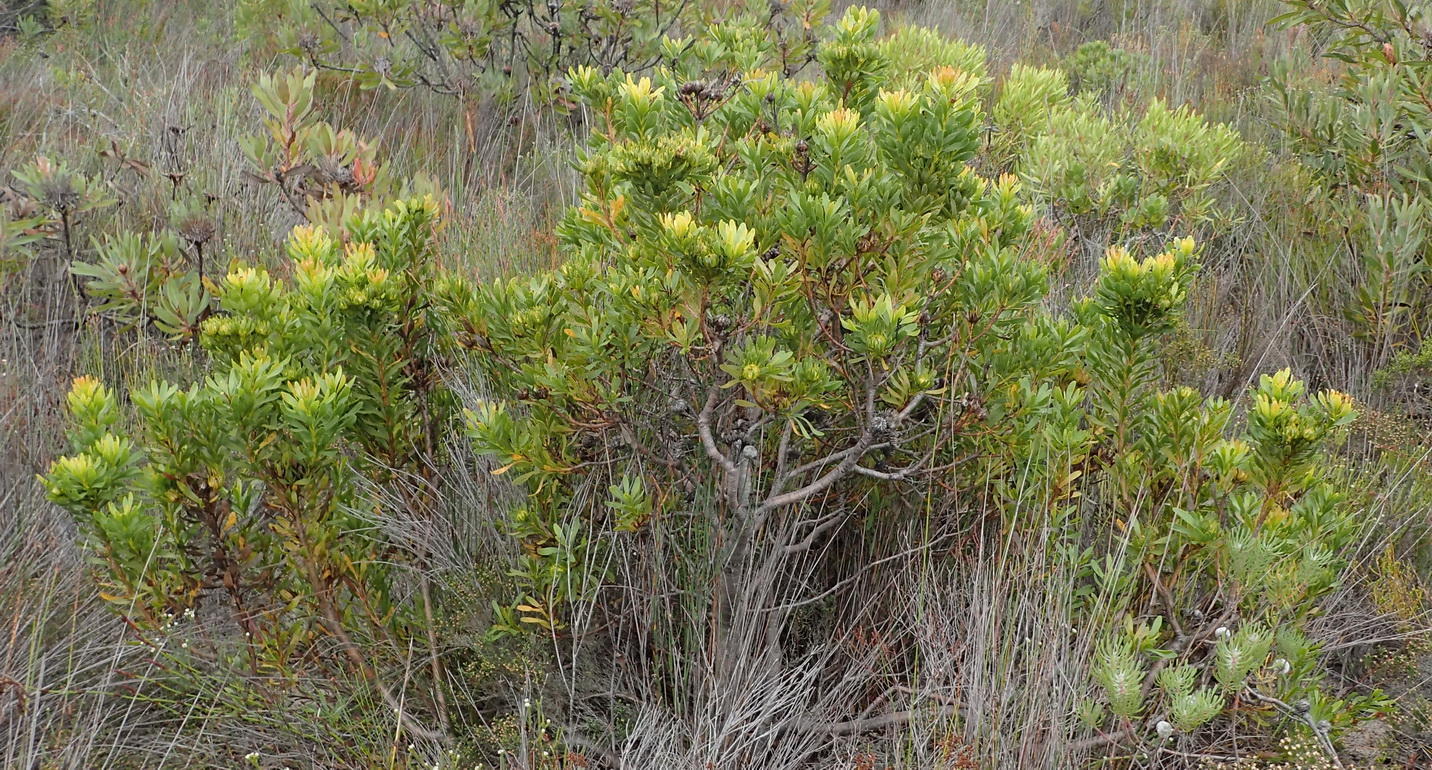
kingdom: Plantae
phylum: Tracheophyta
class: Magnoliopsida
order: Proteales
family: Proteaceae
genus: Aulax
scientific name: Aulax umbellata
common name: Broad-leaf featherbush
